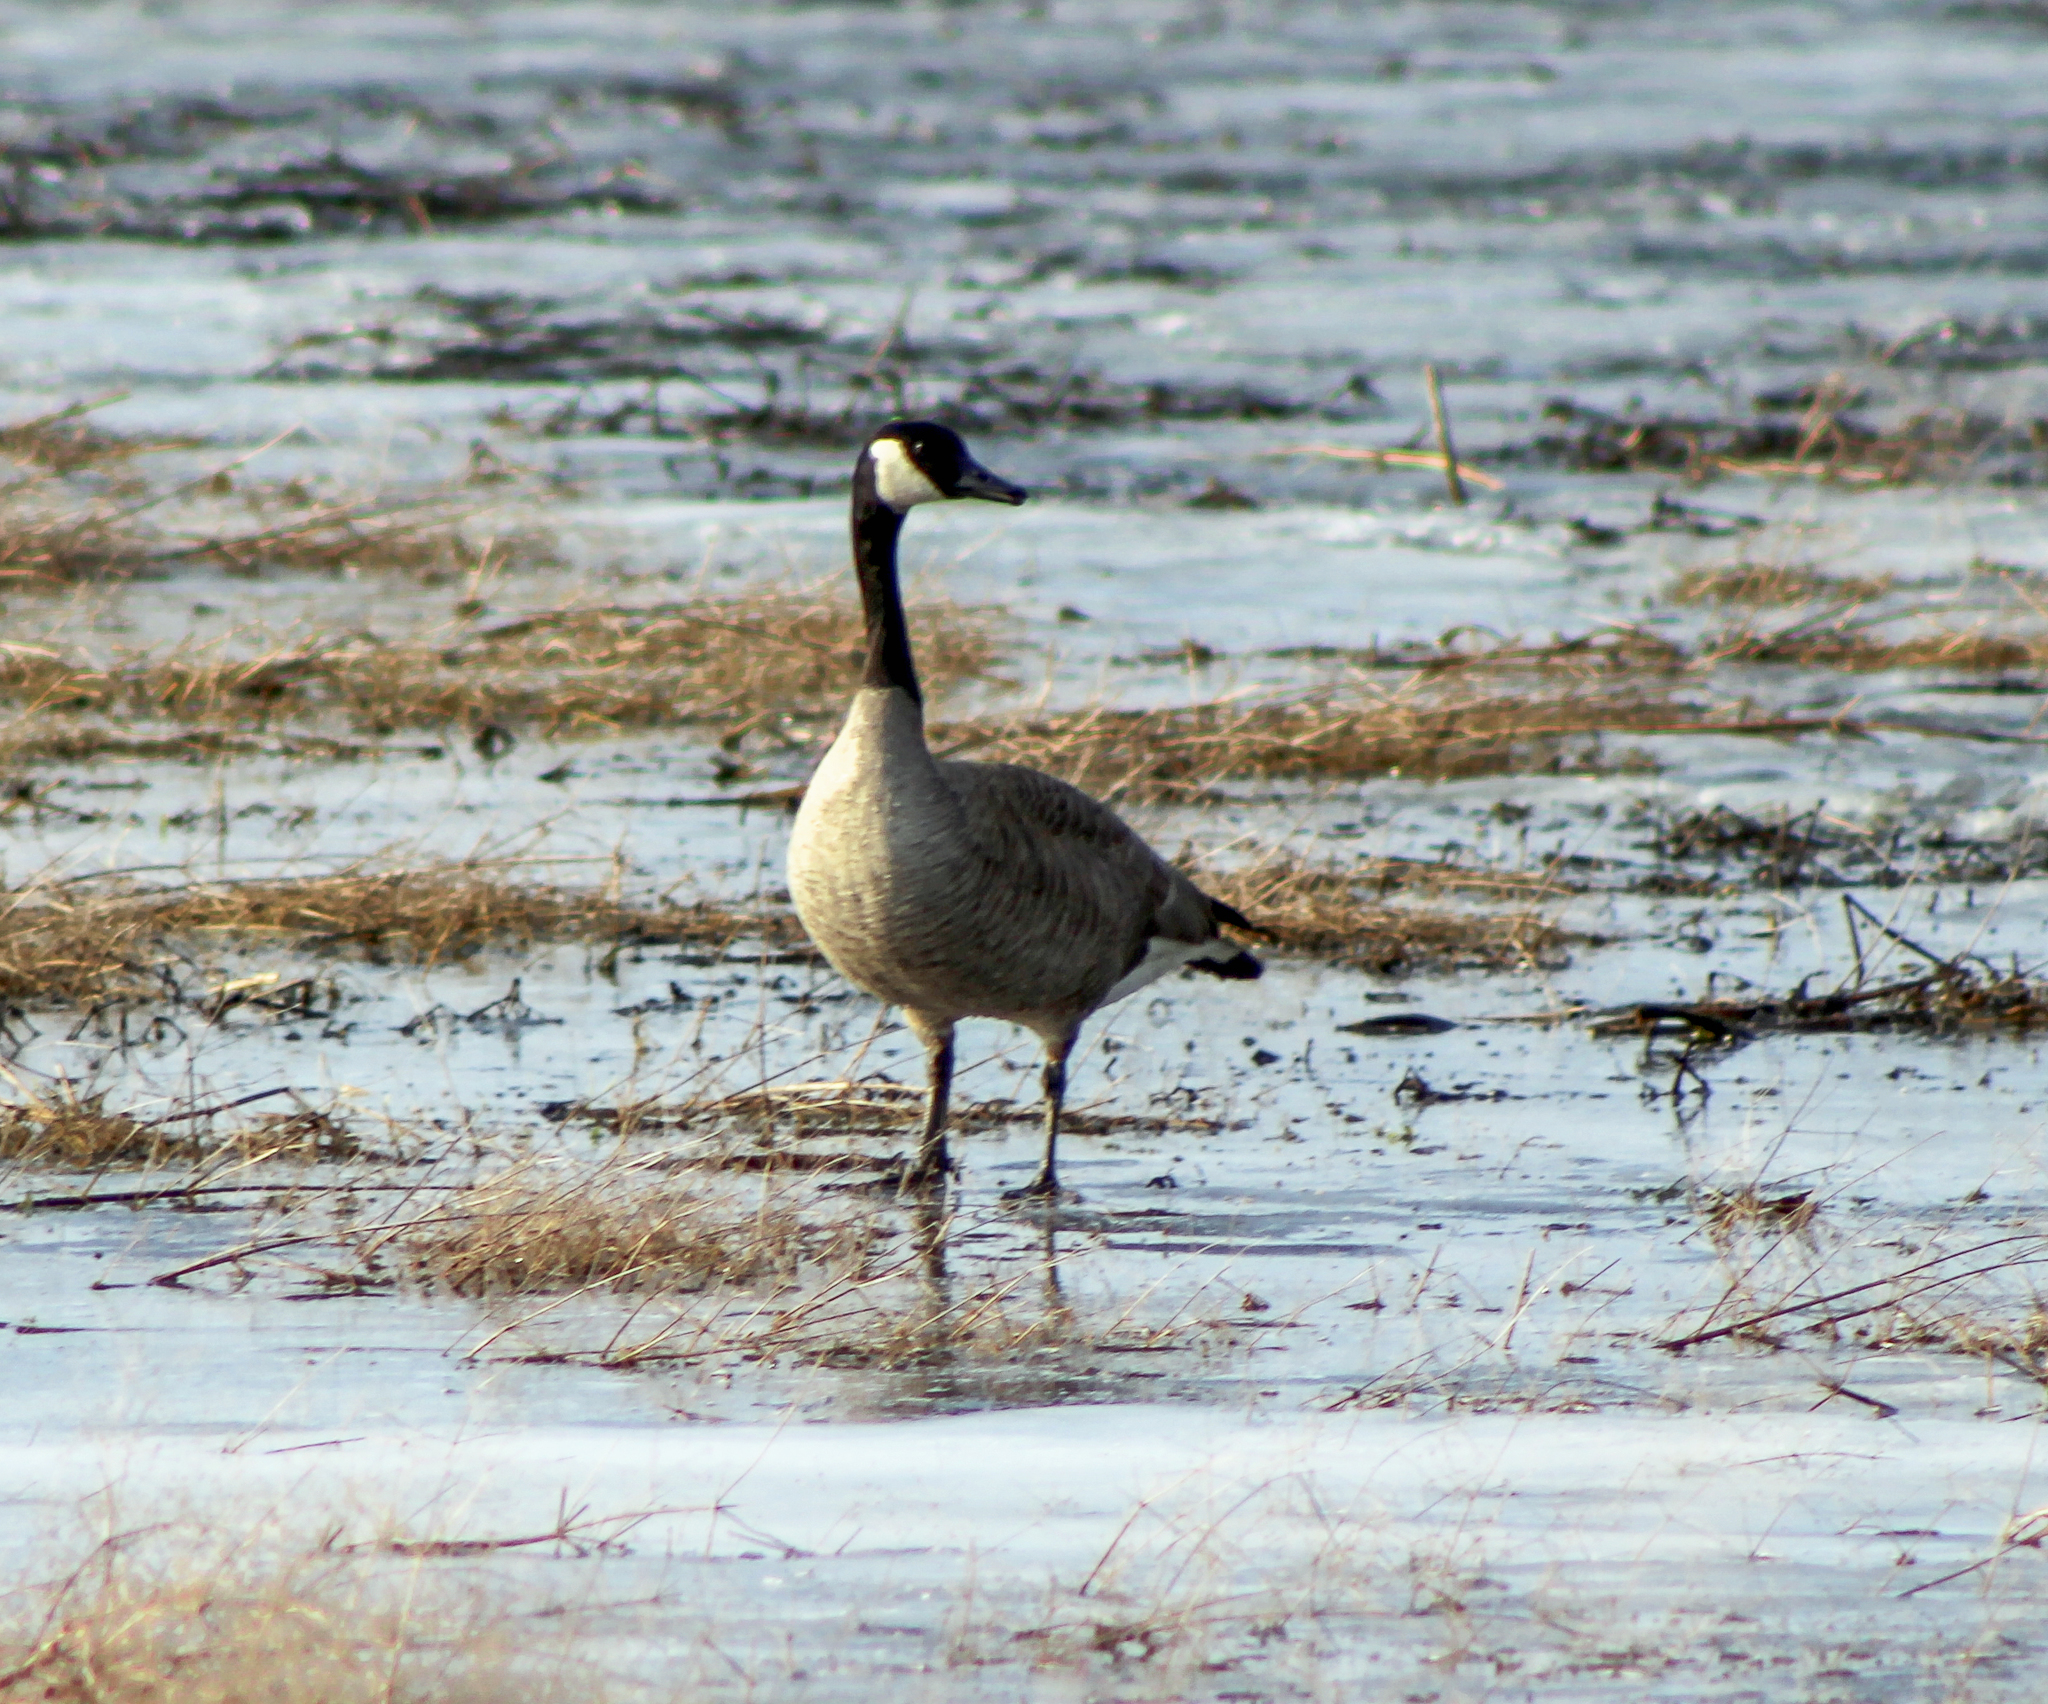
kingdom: Animalia
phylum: Chordata
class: Aves
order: Anseriformes
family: Anatidae
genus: Branta
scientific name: Branta canadensis
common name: Canada goose
